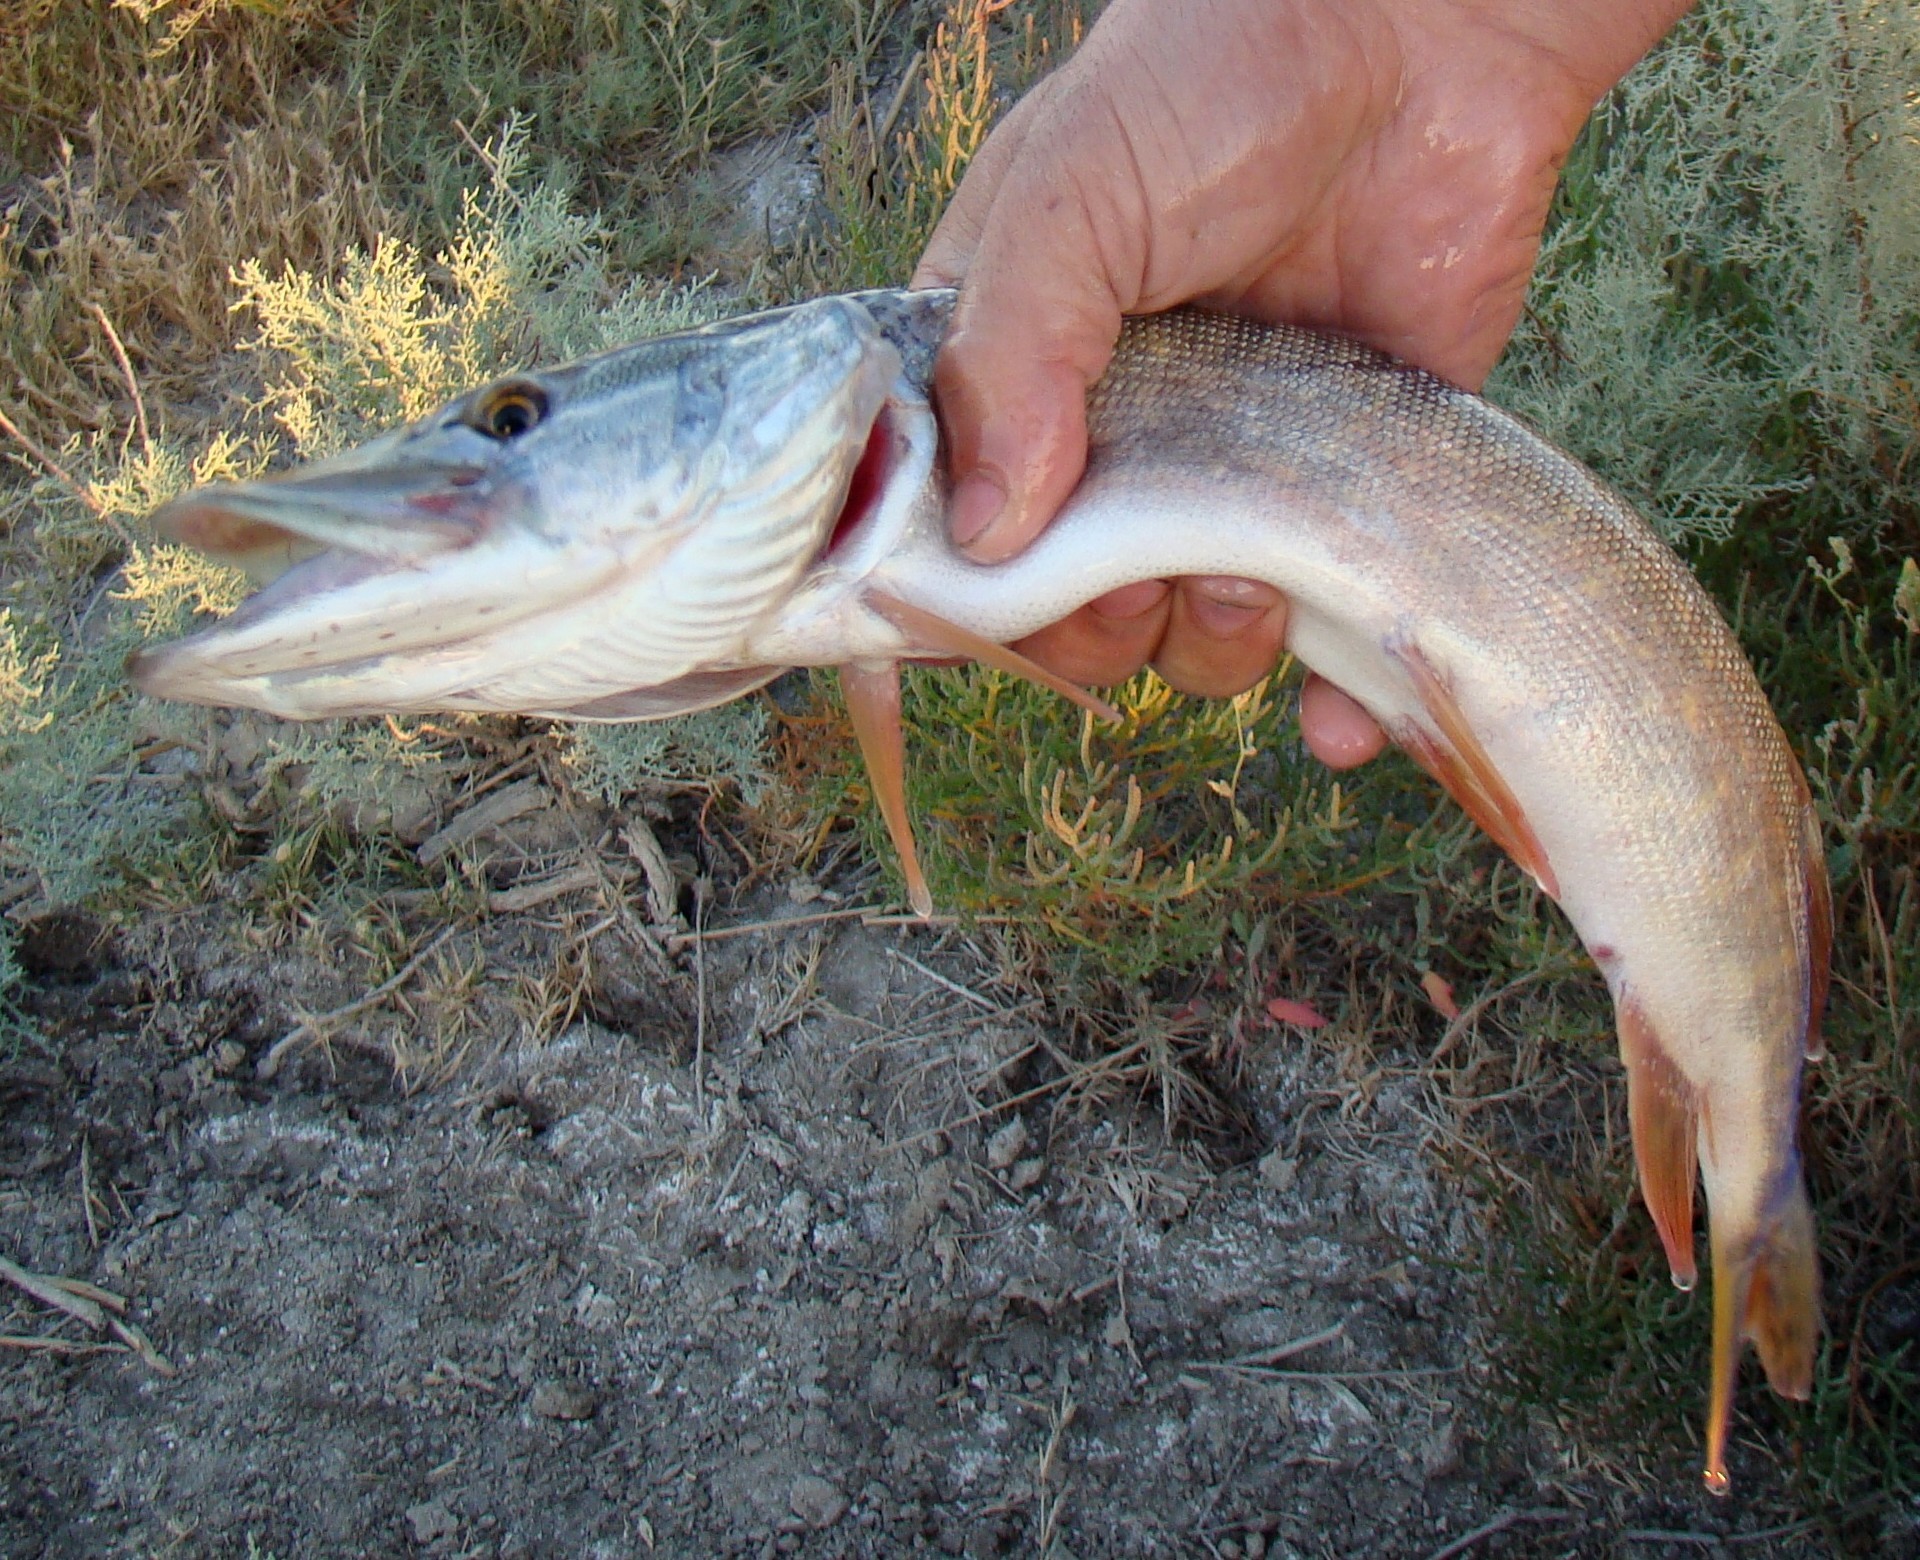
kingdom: Animalia
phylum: Chordata
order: Esociformes
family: Esocidae
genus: Esox
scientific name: Esox lucius
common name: Northern pike
